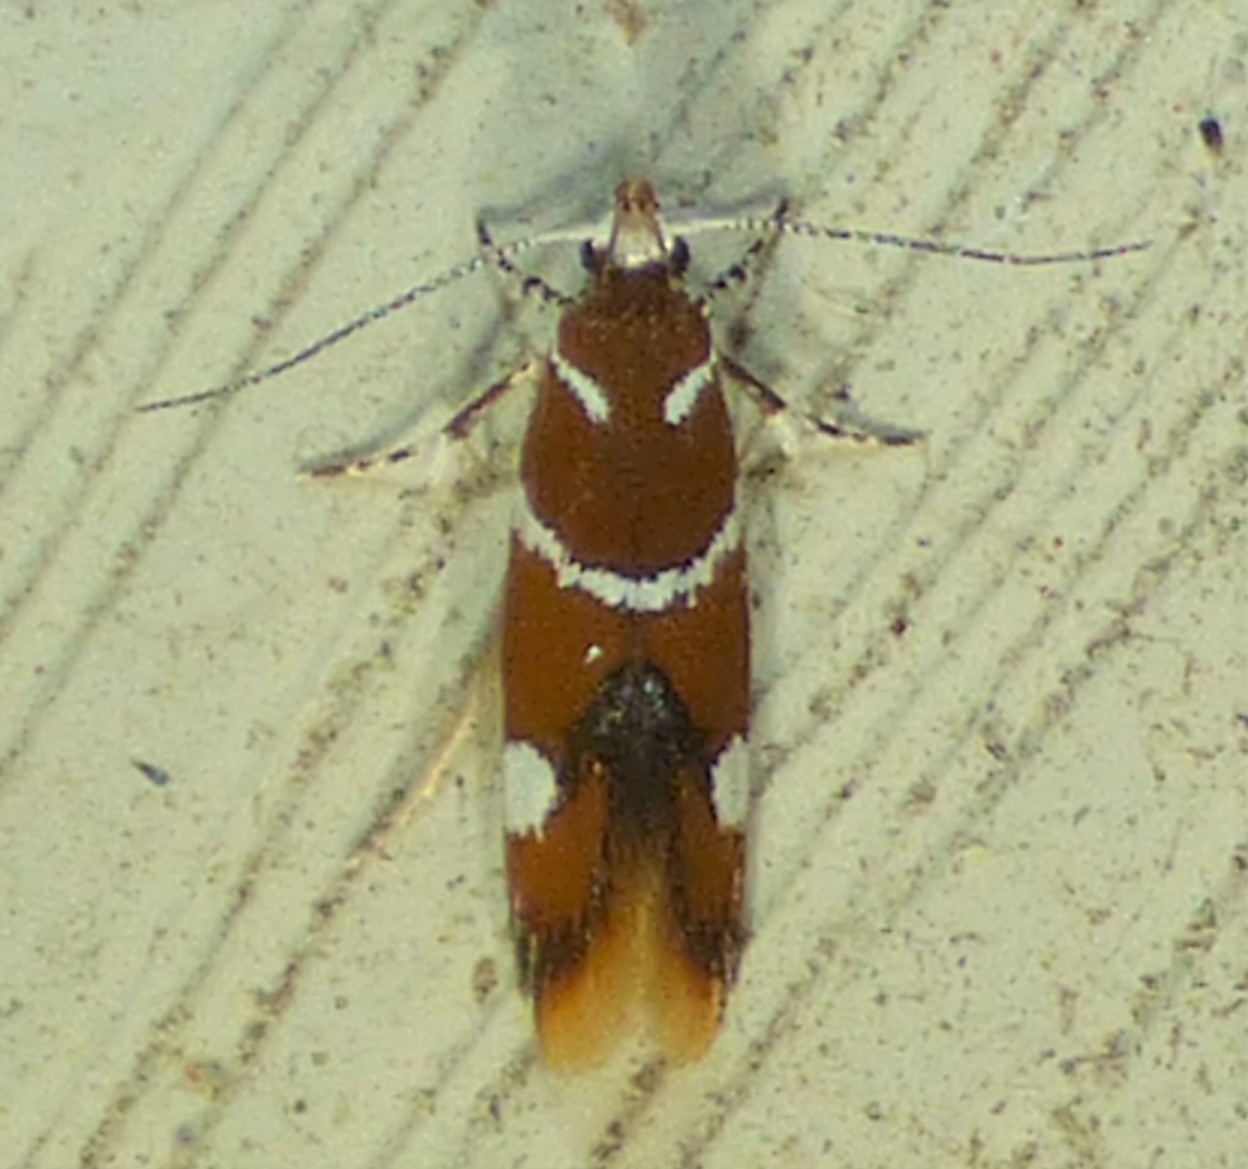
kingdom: Animalia
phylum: Arthropoda
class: Insecta
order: Lepidoptera
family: Oecophoridae
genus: Promalactis
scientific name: Promalactis suzukiella
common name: Moth
